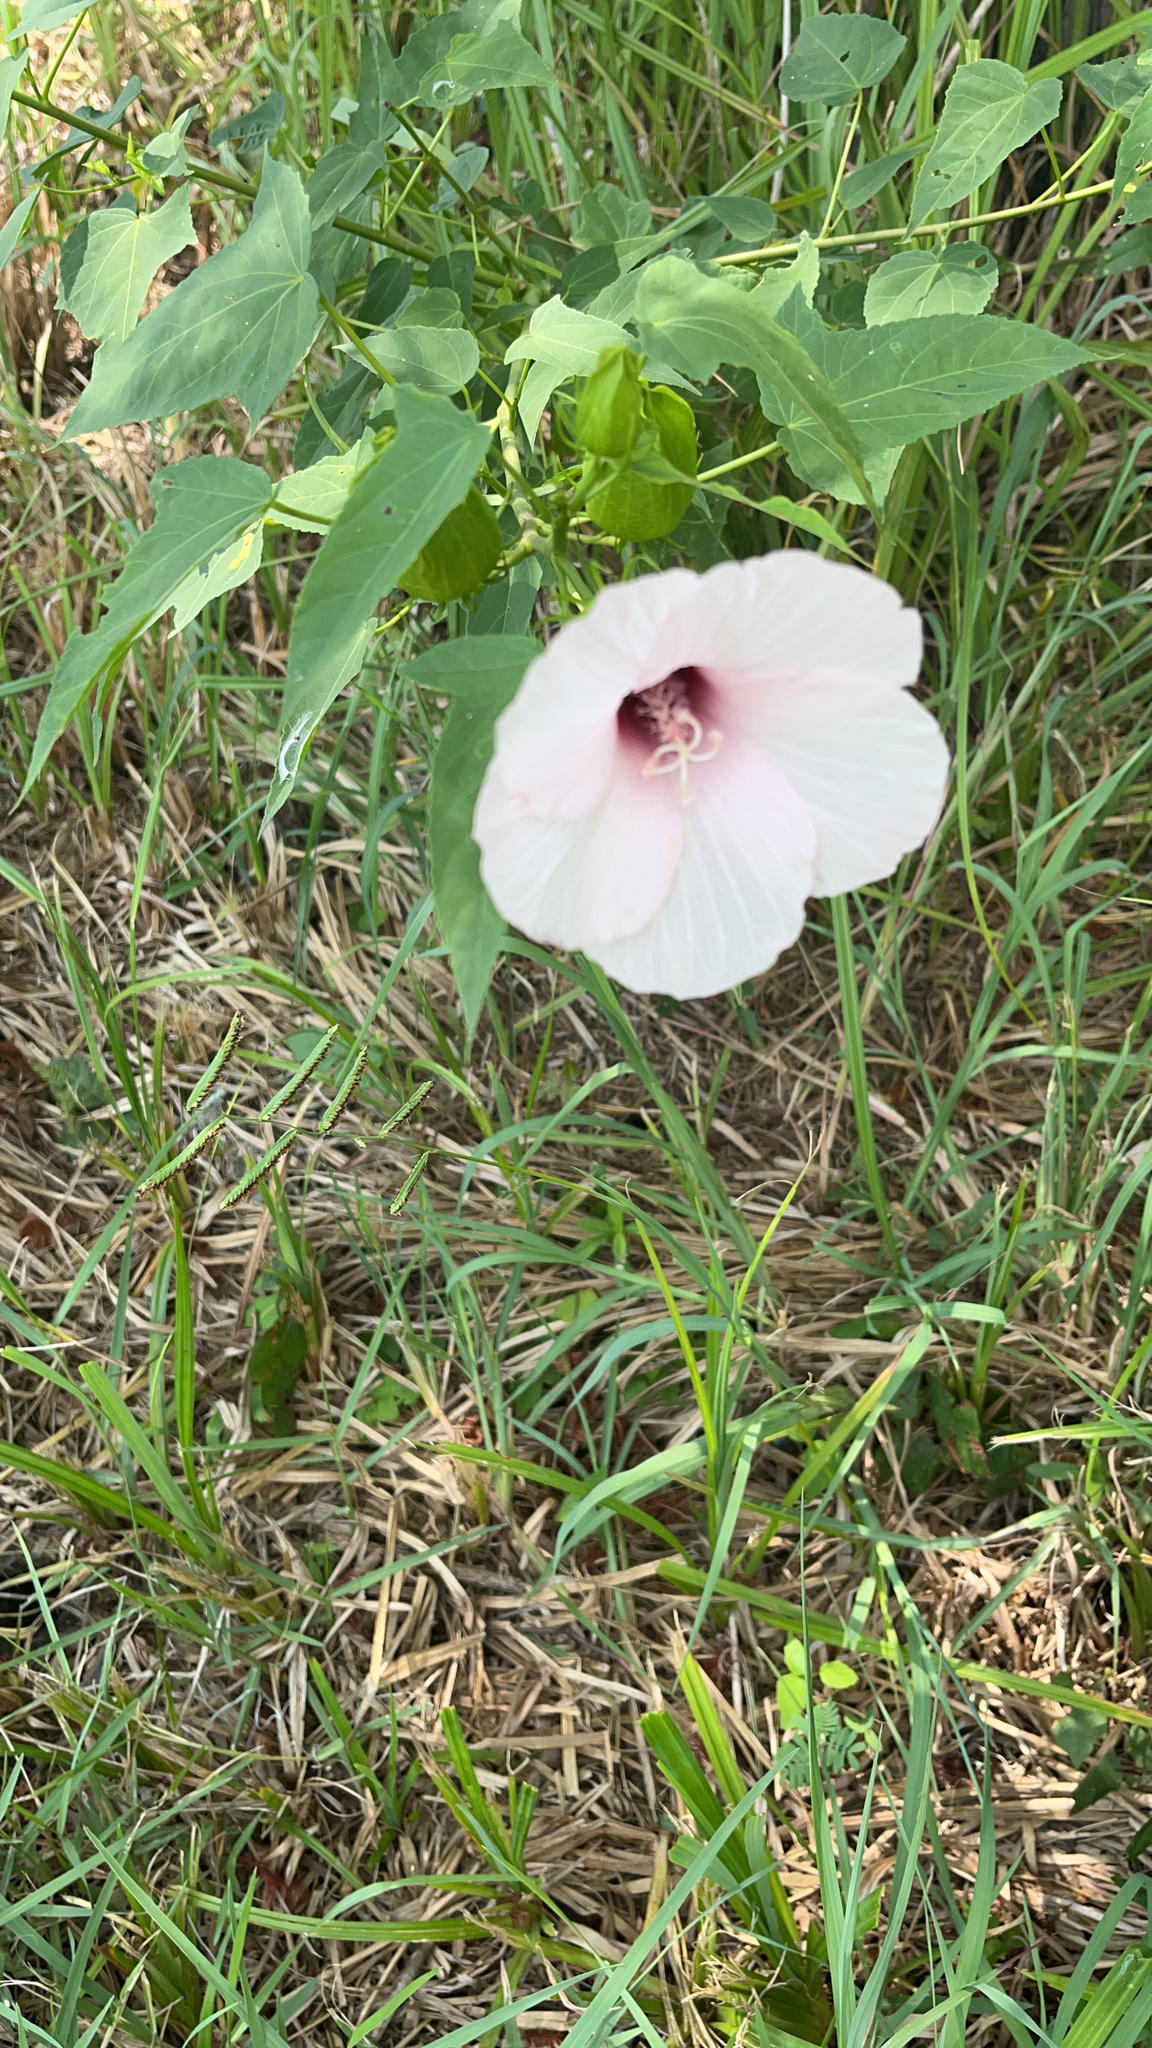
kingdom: Plantae
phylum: Tracheophyta
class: Magnoliopsida
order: Malvales
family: Malvaceae
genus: Hibiscus
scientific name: Hibiscus laevis
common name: Scarlet rose-mallow
